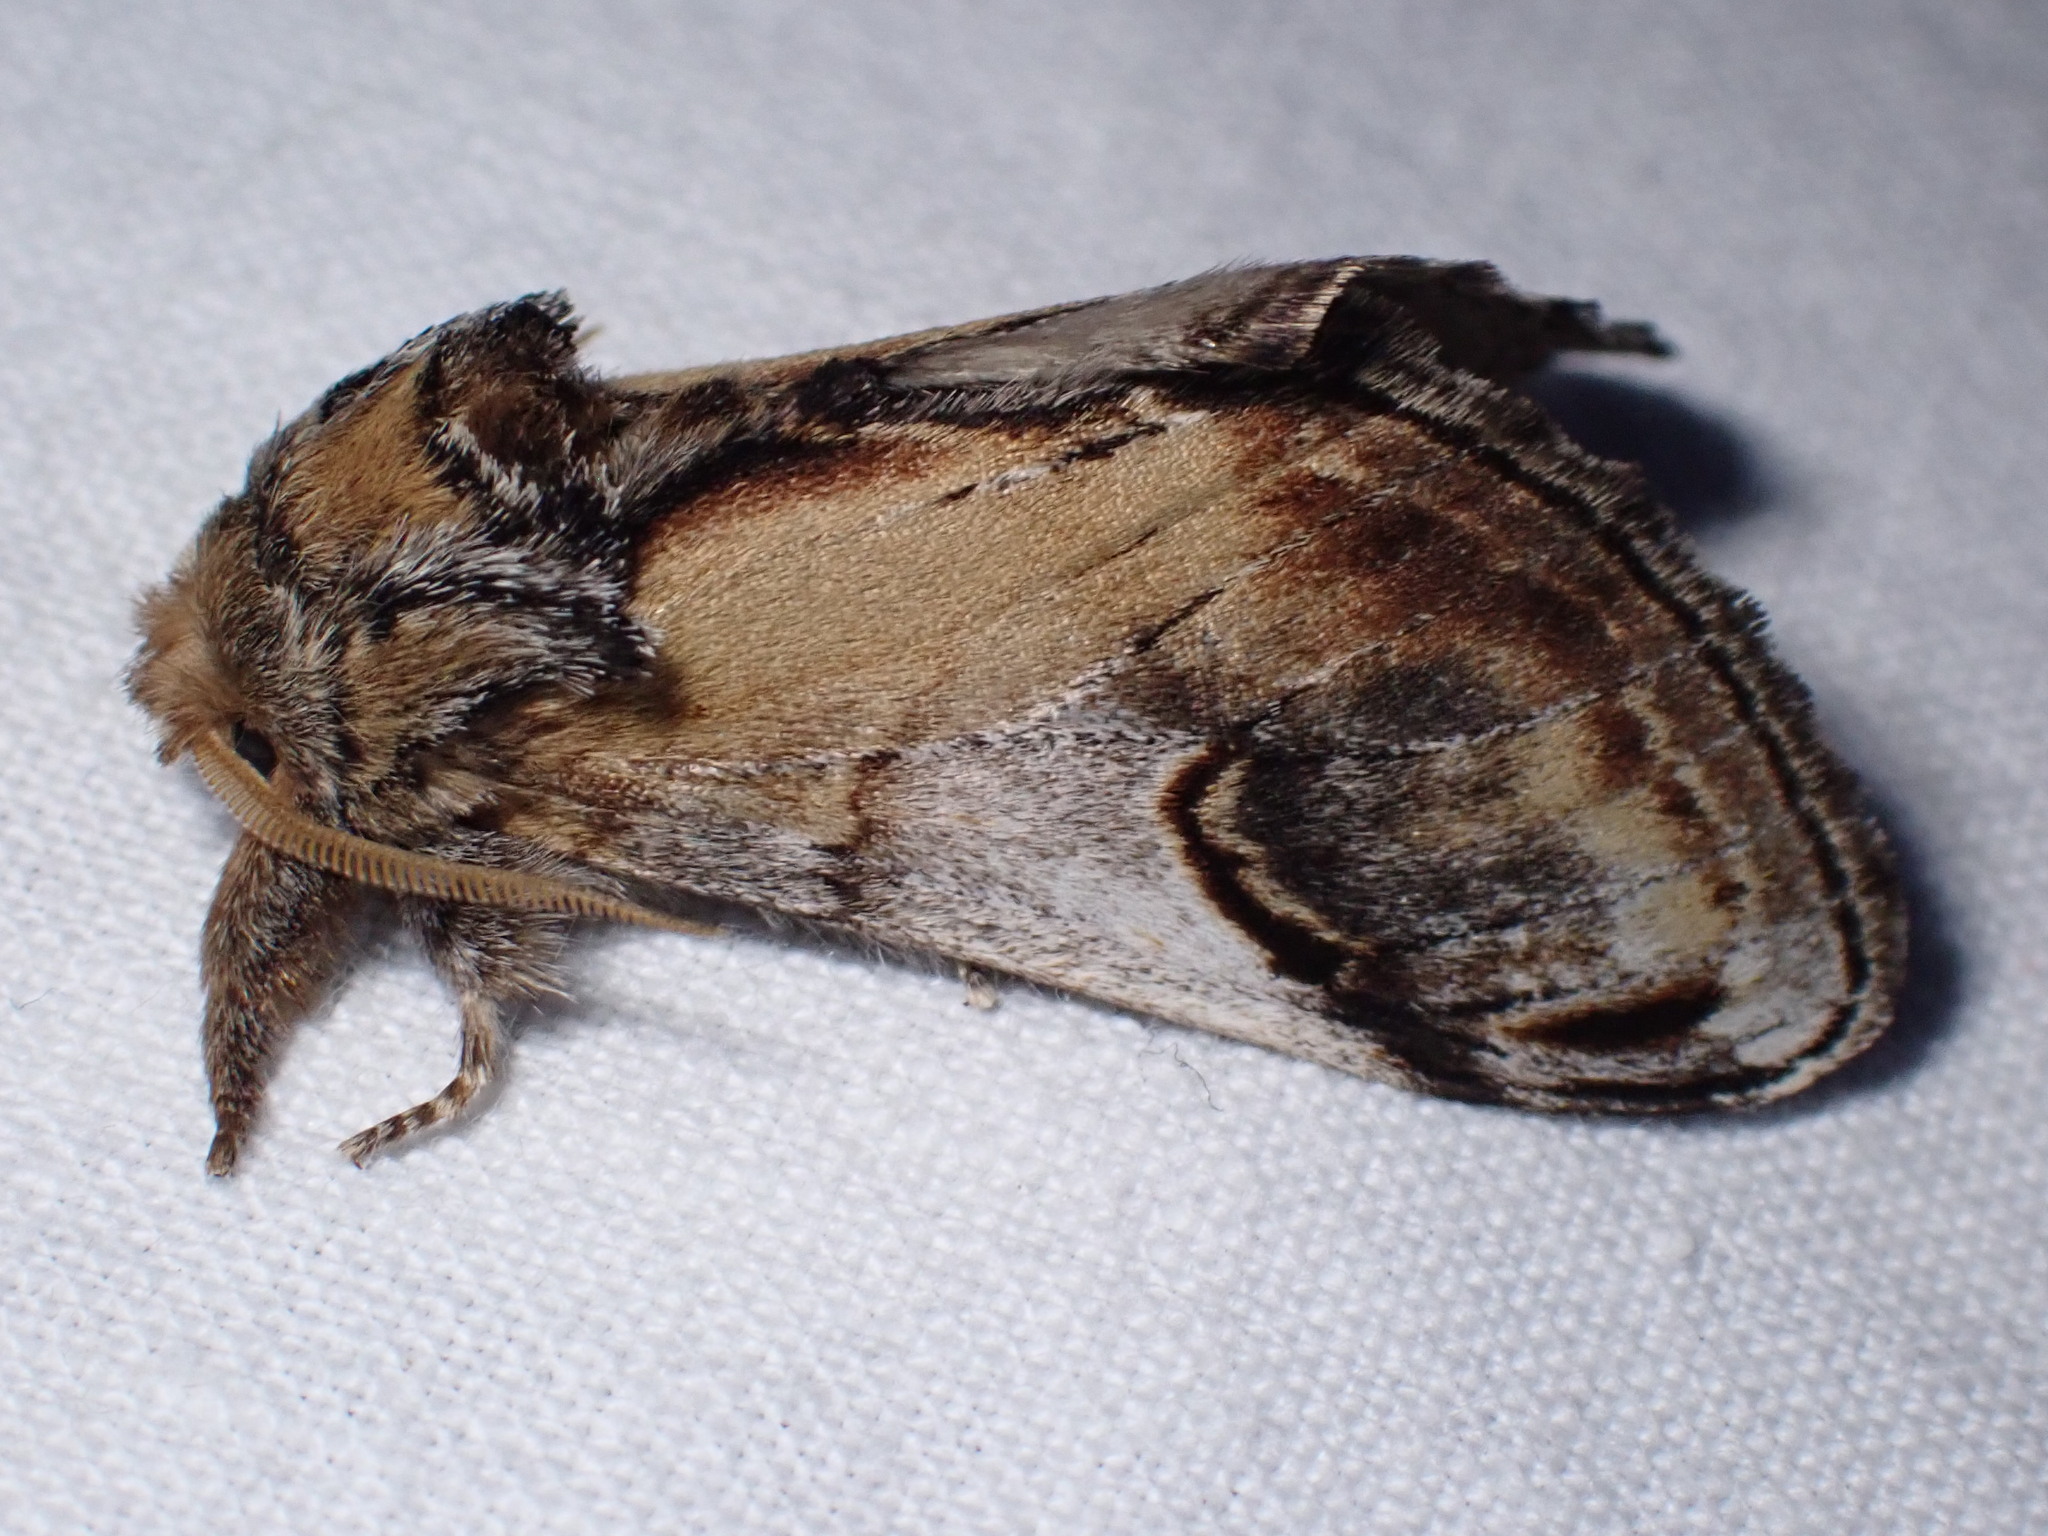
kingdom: Animalia
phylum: Arthropoda
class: Insecta
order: Lepidoptera
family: Notodontidae
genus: Notodonta
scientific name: Notodonta ziczac
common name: Pebble prominent
